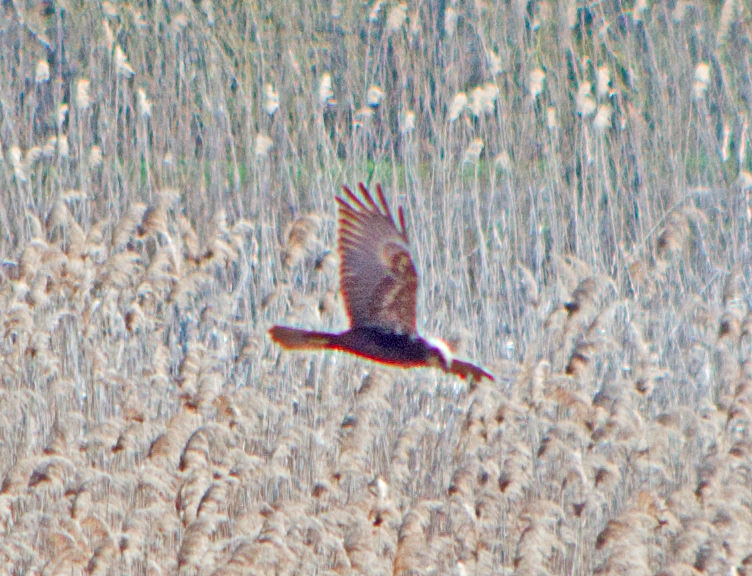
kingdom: Animalia
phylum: Chordata
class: Aves
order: Accipitriformes
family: Accipitridae
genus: Circus
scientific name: Circus aeruginosus
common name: Western marsh harrier
